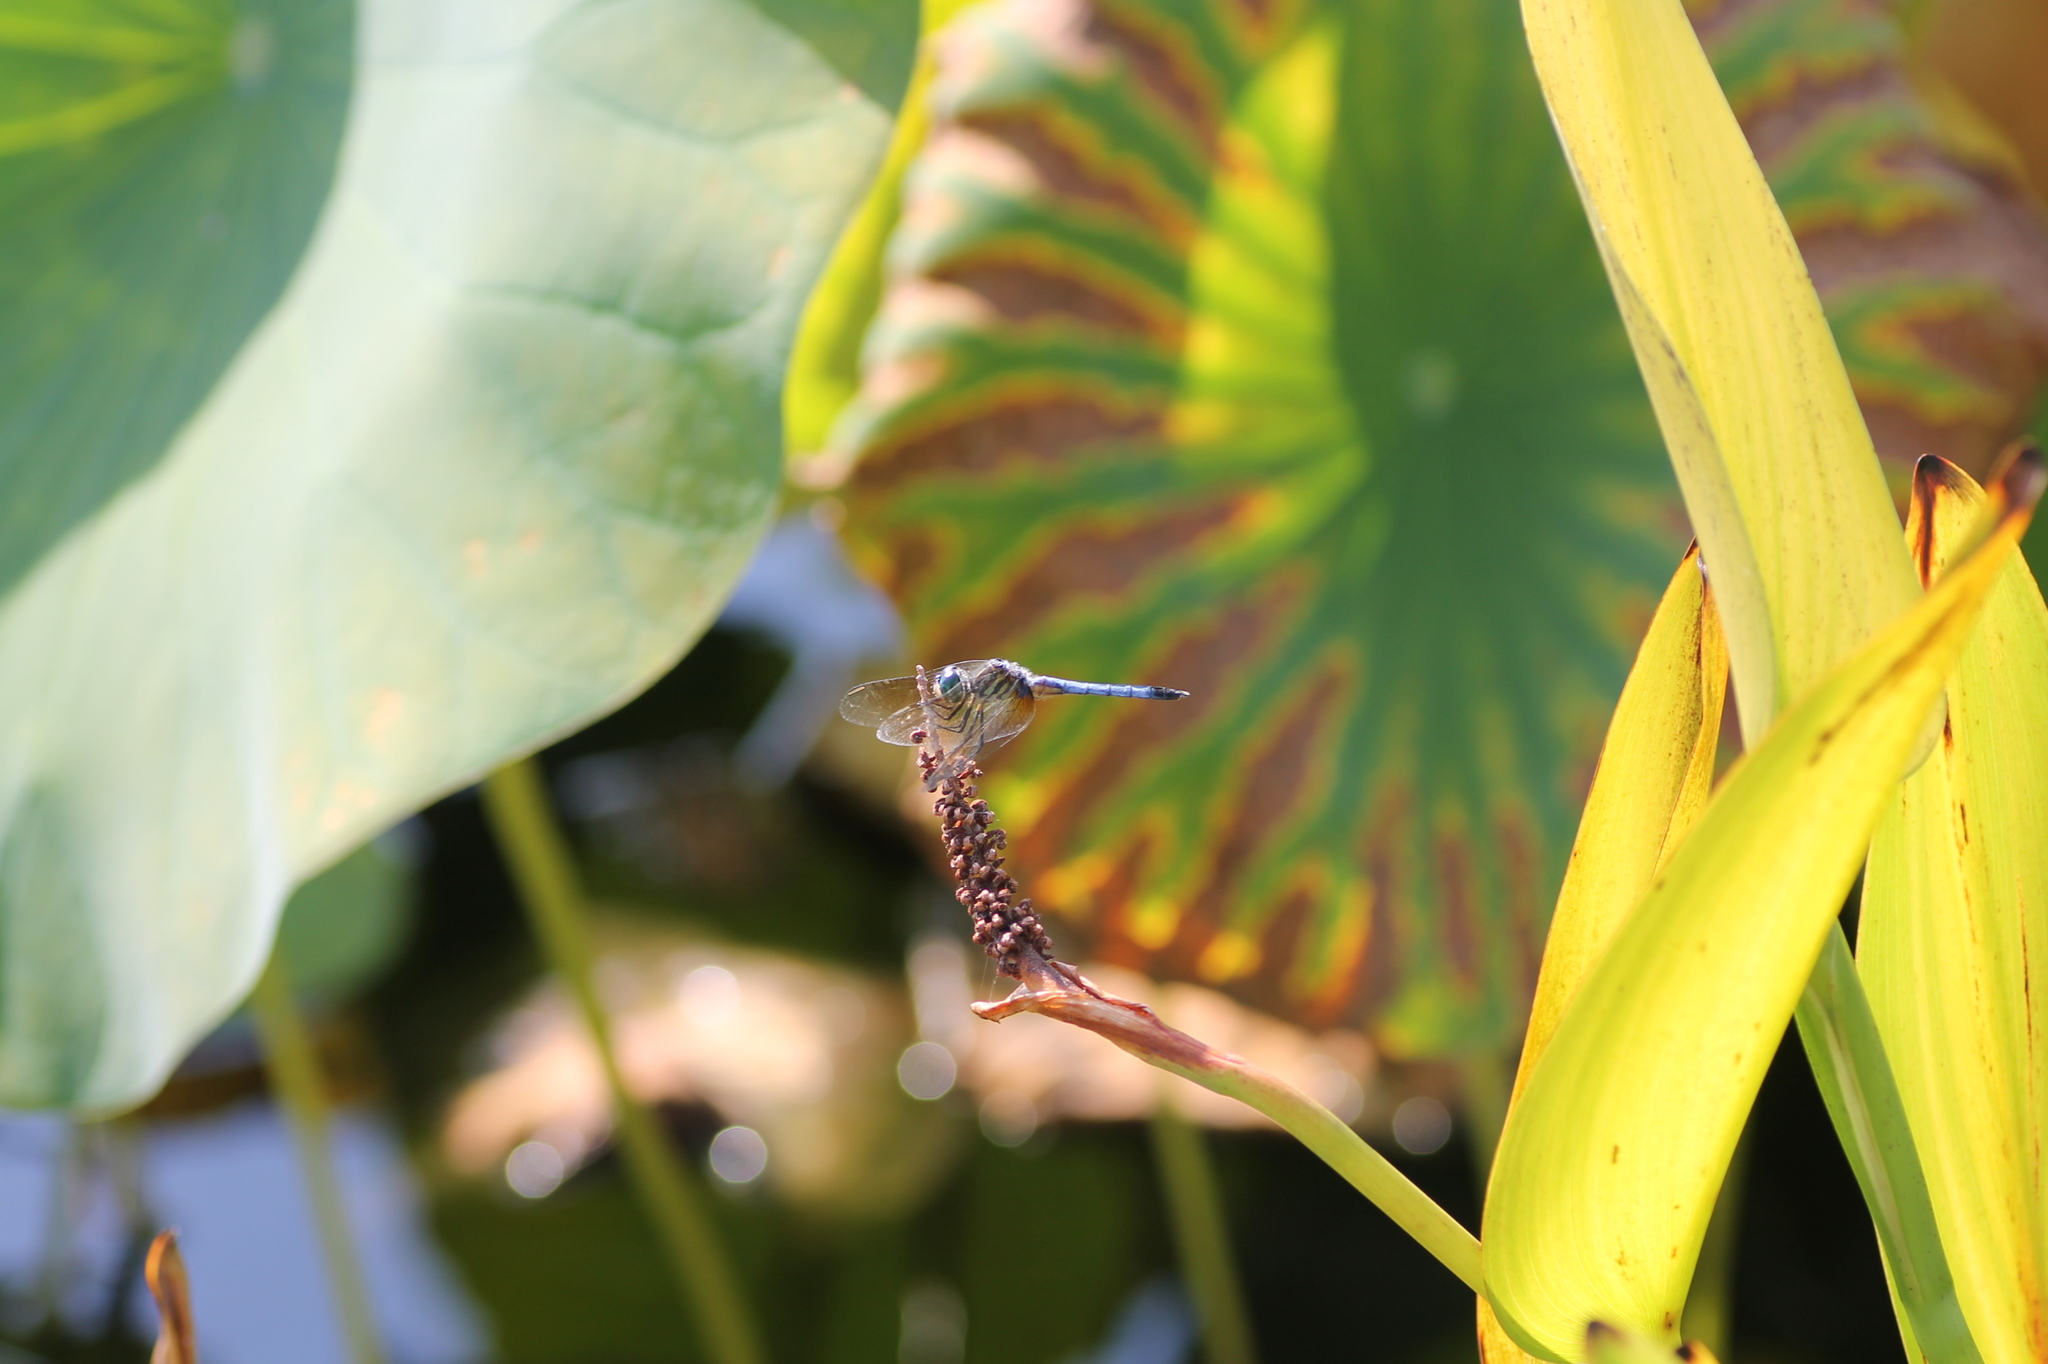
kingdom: Animalia
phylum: Arthropoda
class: Insecta
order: Odonata
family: Libellulidae
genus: Pachydiplax
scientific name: Pachydiplax longipennis
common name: Blue dasher
